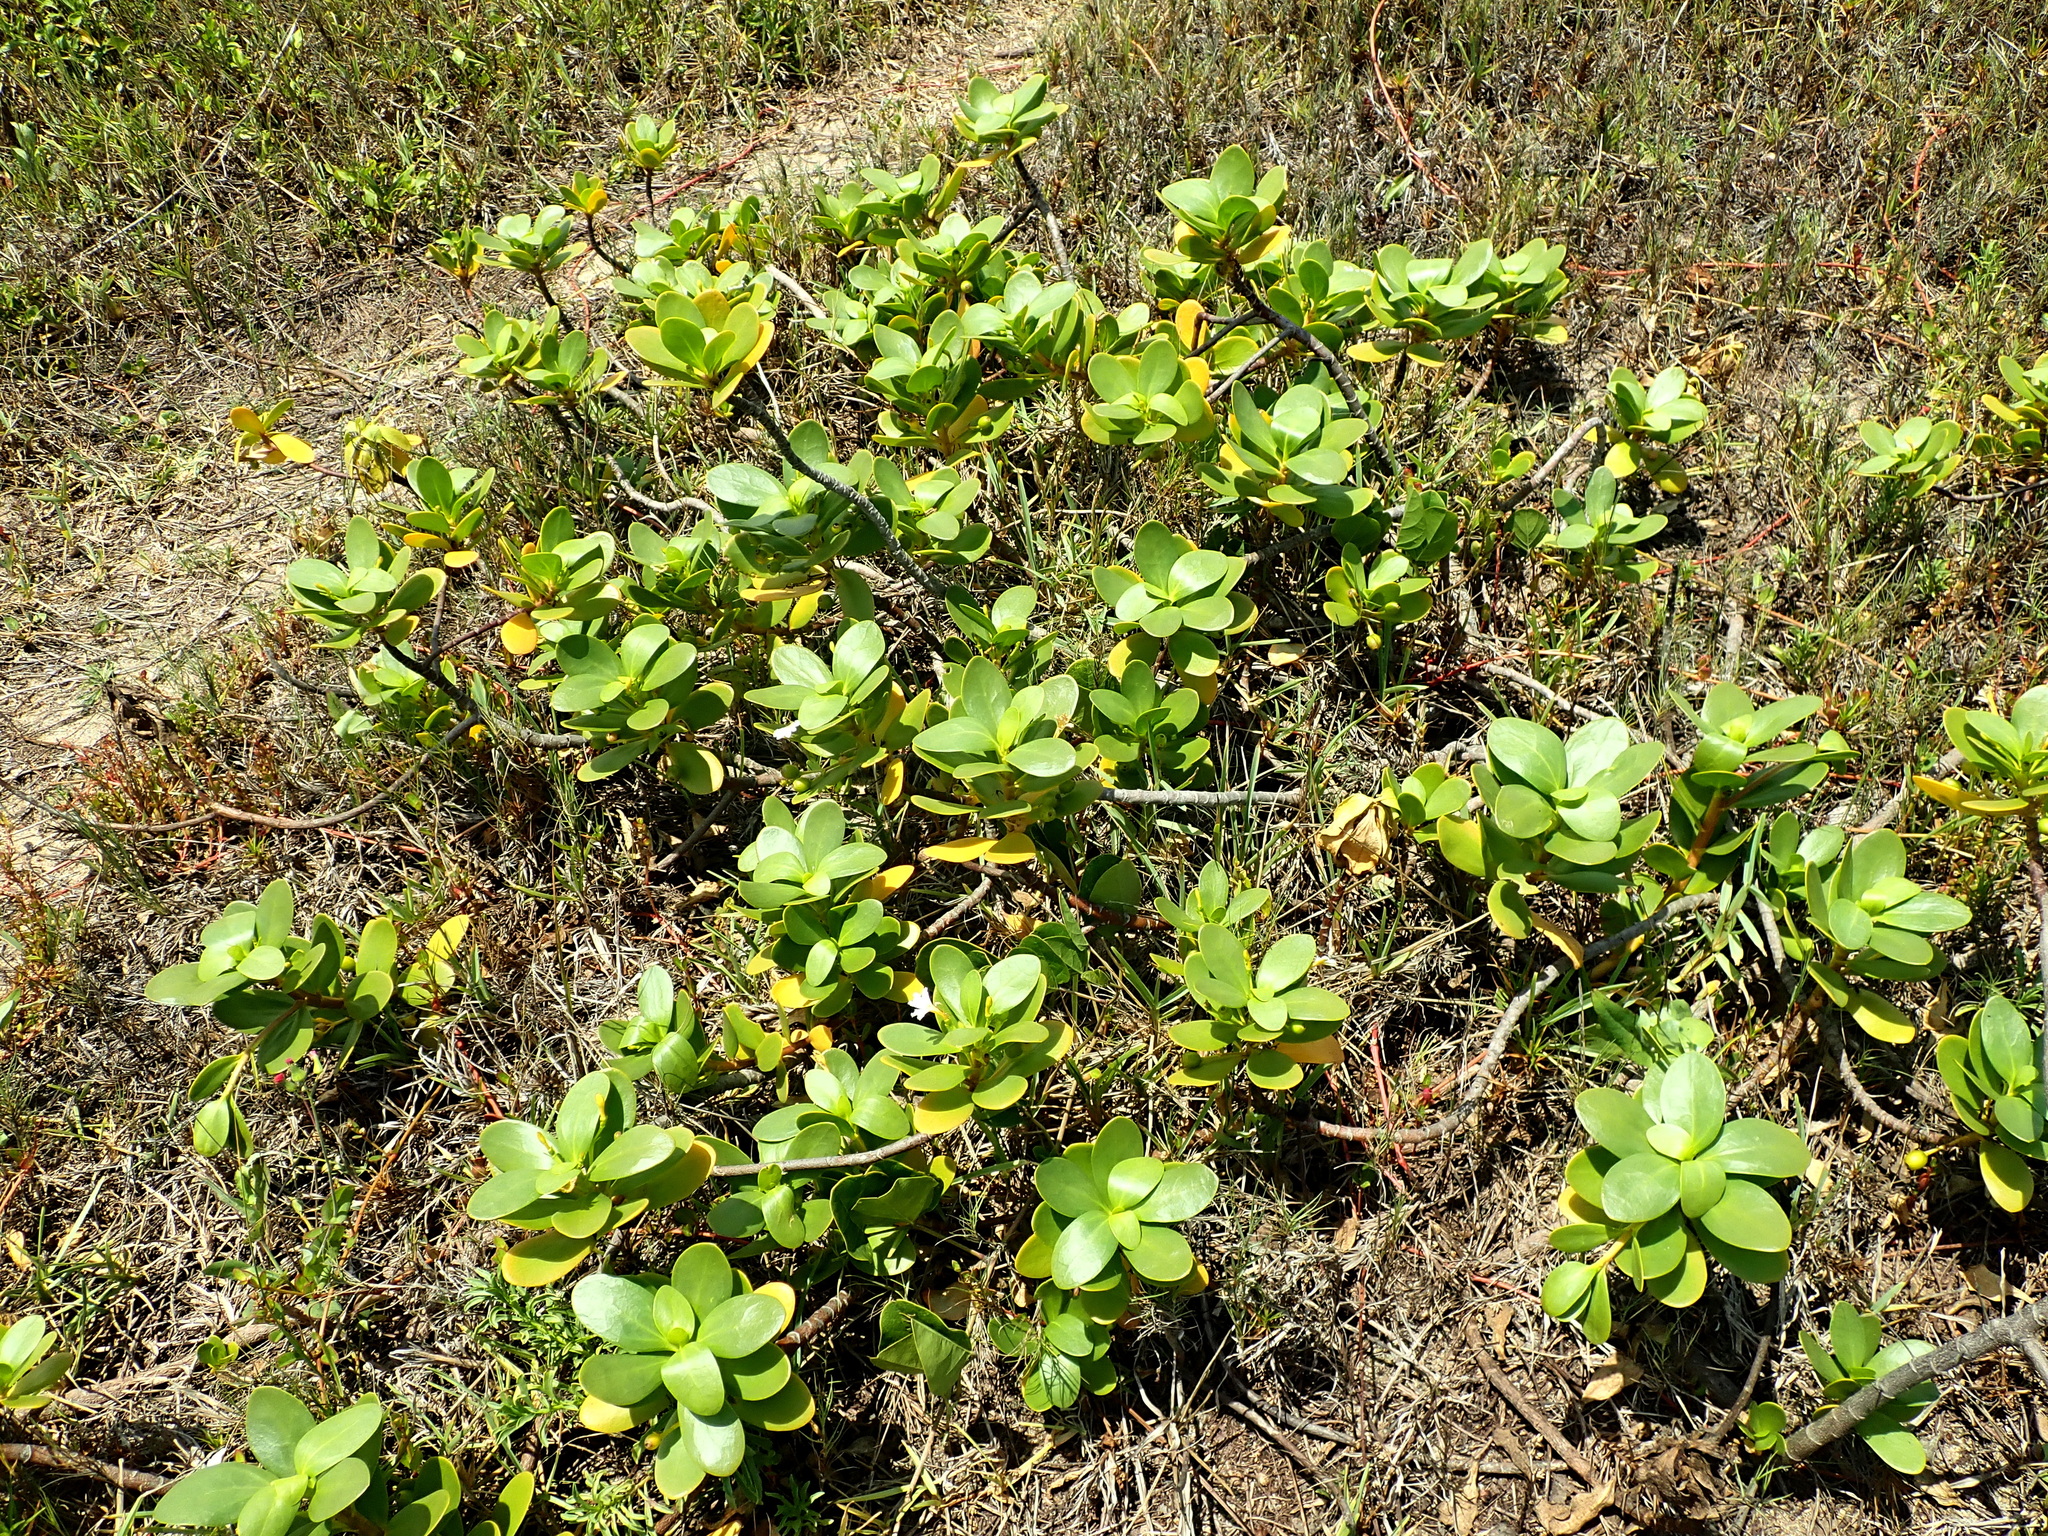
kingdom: Plantae
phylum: Tracheophyta
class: Magnoliopsida
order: Asterales
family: Goodeniaceae
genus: Scaevola
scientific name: Scaevola plumieri
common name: Gull feed
